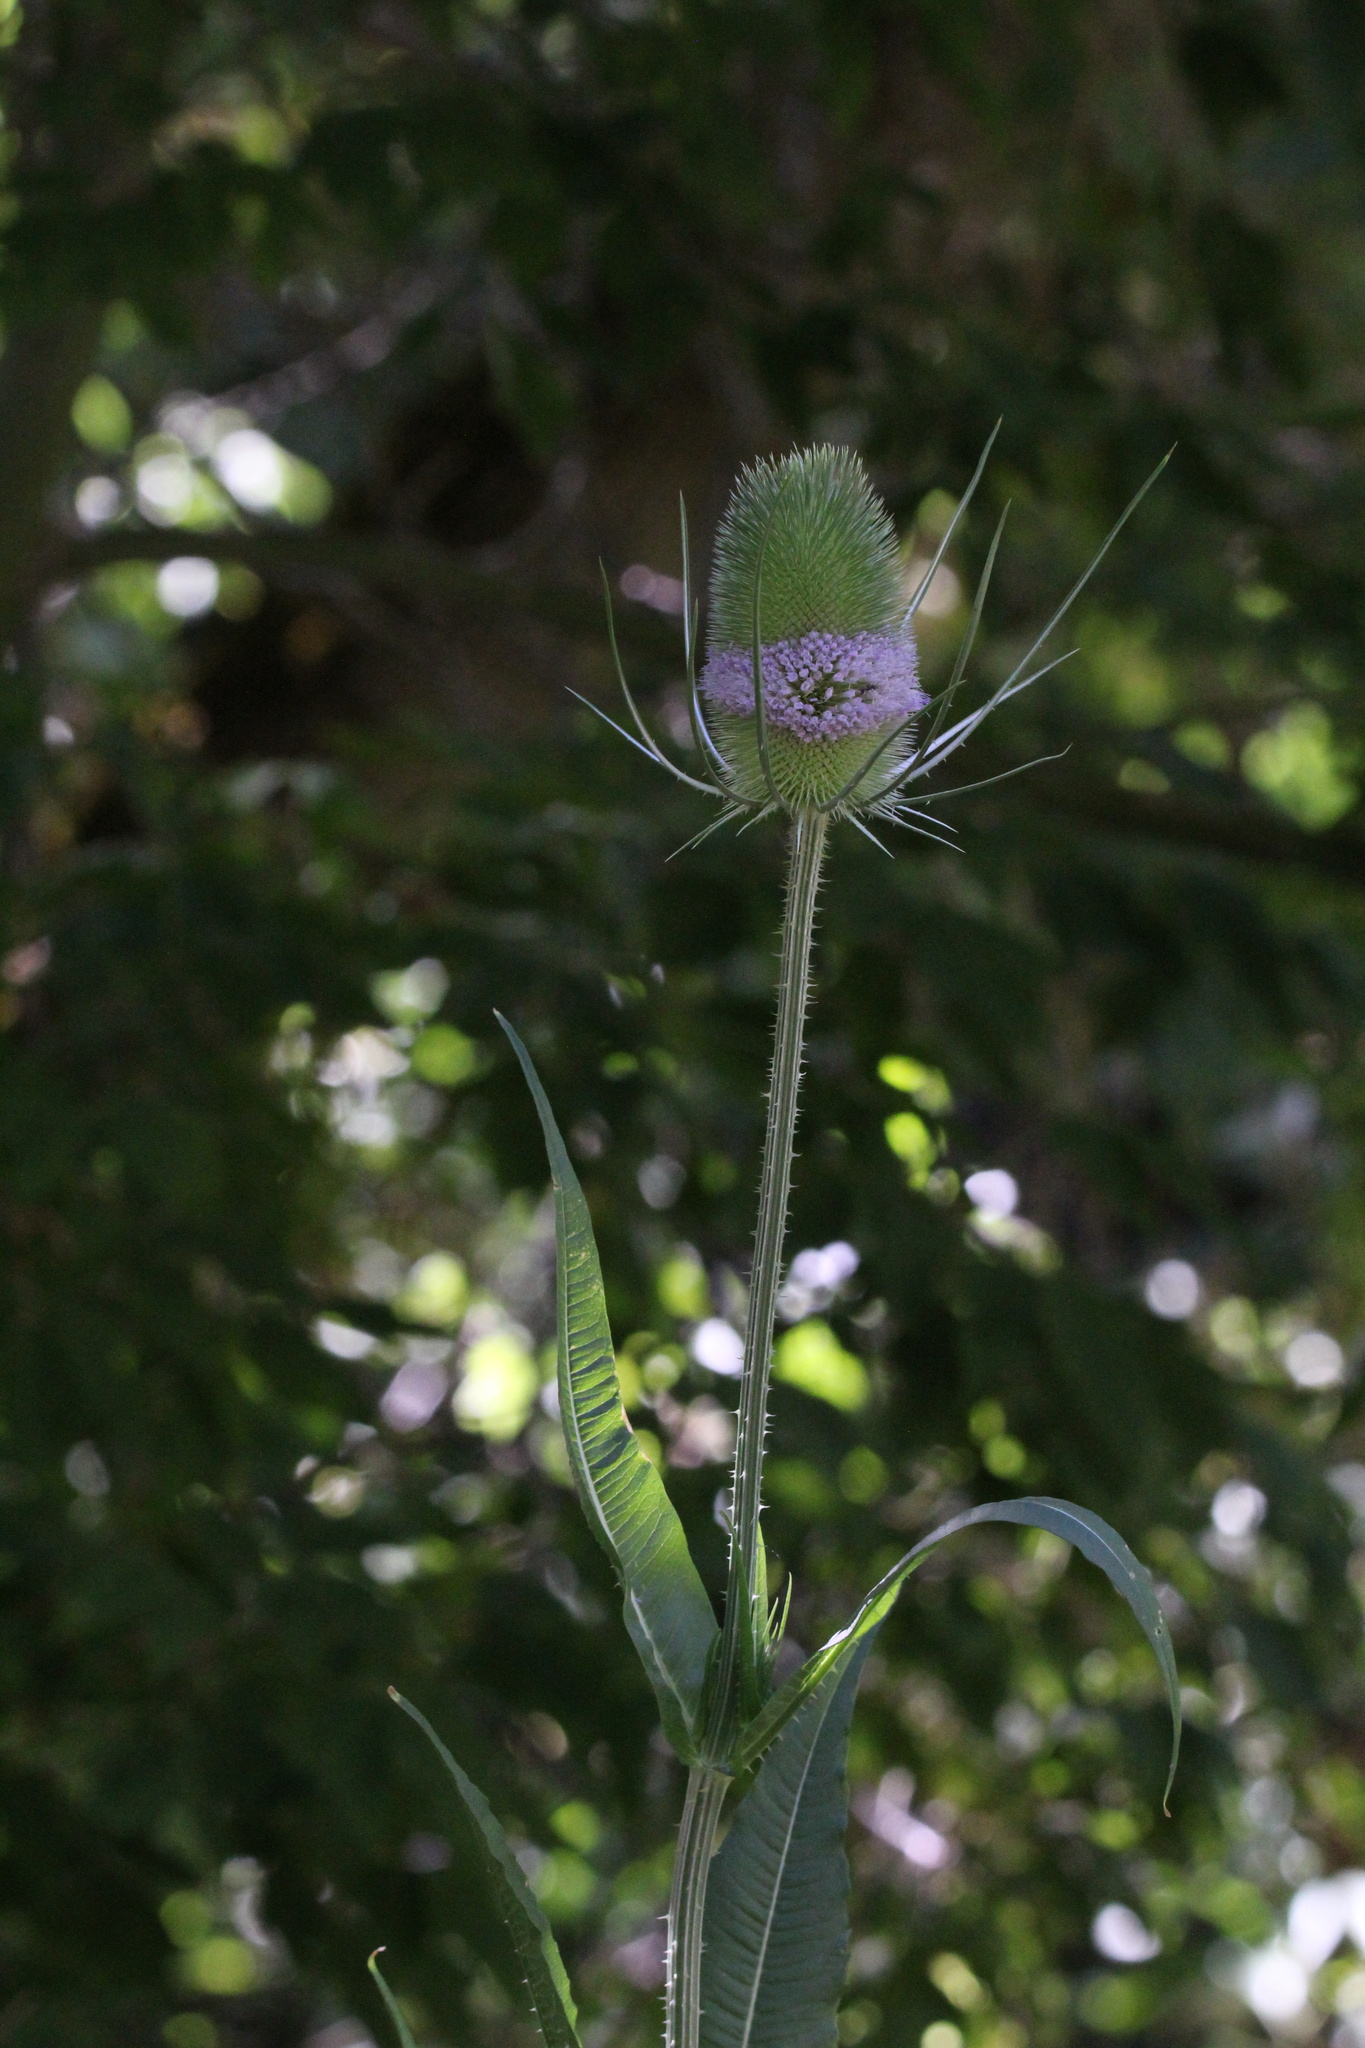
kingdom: Plantae
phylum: Tracheophyta
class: Magnoliopsida
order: Dipsacales
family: Caprifoliaceae
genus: Dipsacus
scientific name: Dipsacus fullonum
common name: Teasel
